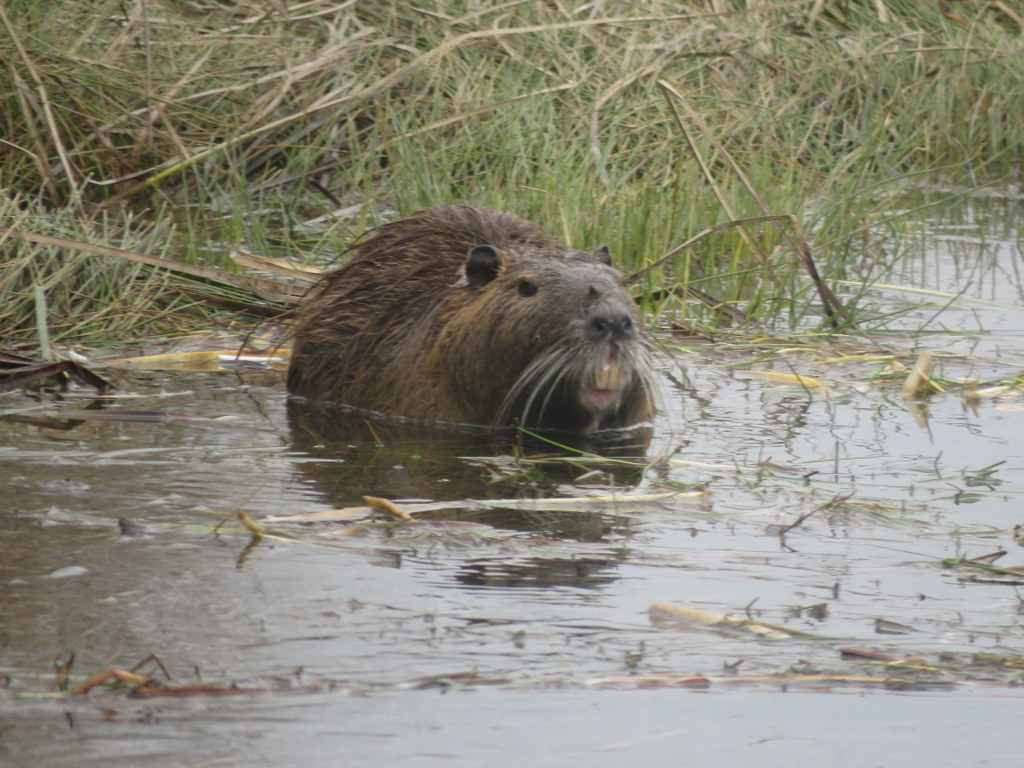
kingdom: Animalia
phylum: Chordata
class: Mammalia
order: Rodentia
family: Myocastoridae
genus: Myocastor
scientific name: Myocastor coypus
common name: Coypu
